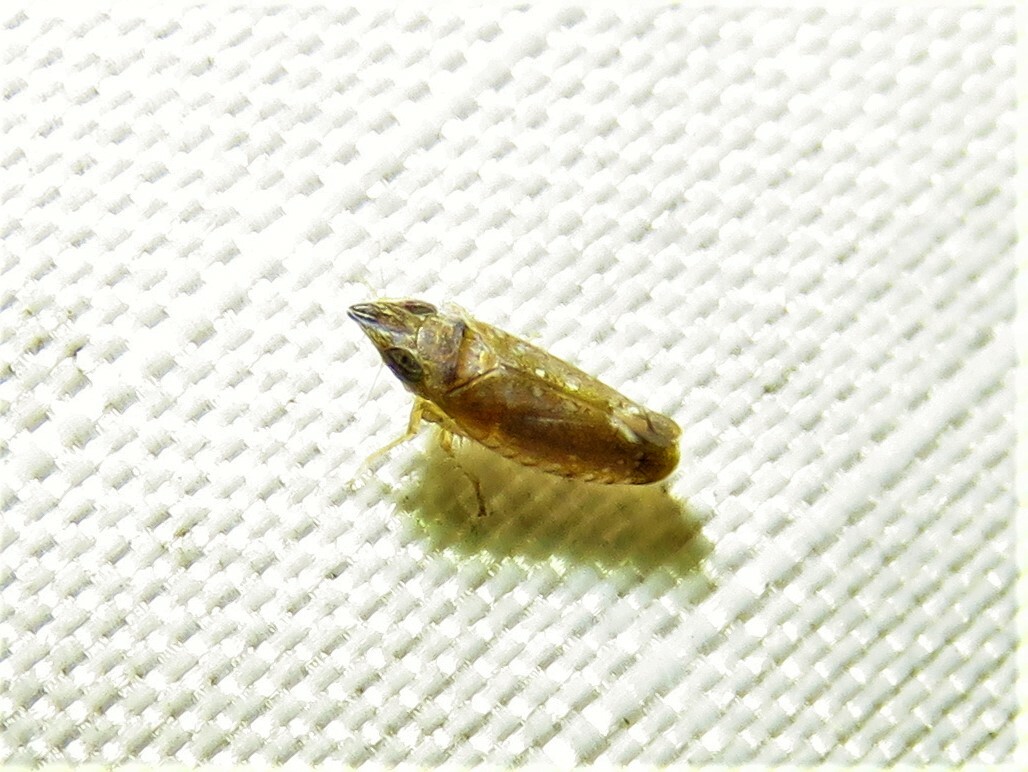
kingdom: Animalia
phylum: Arthropoda
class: Insecta
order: Hemiptera
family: Cicadellidae
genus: Scaphytopius
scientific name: Scaphytopius acutus
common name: The sharp-nosed leafhopper
